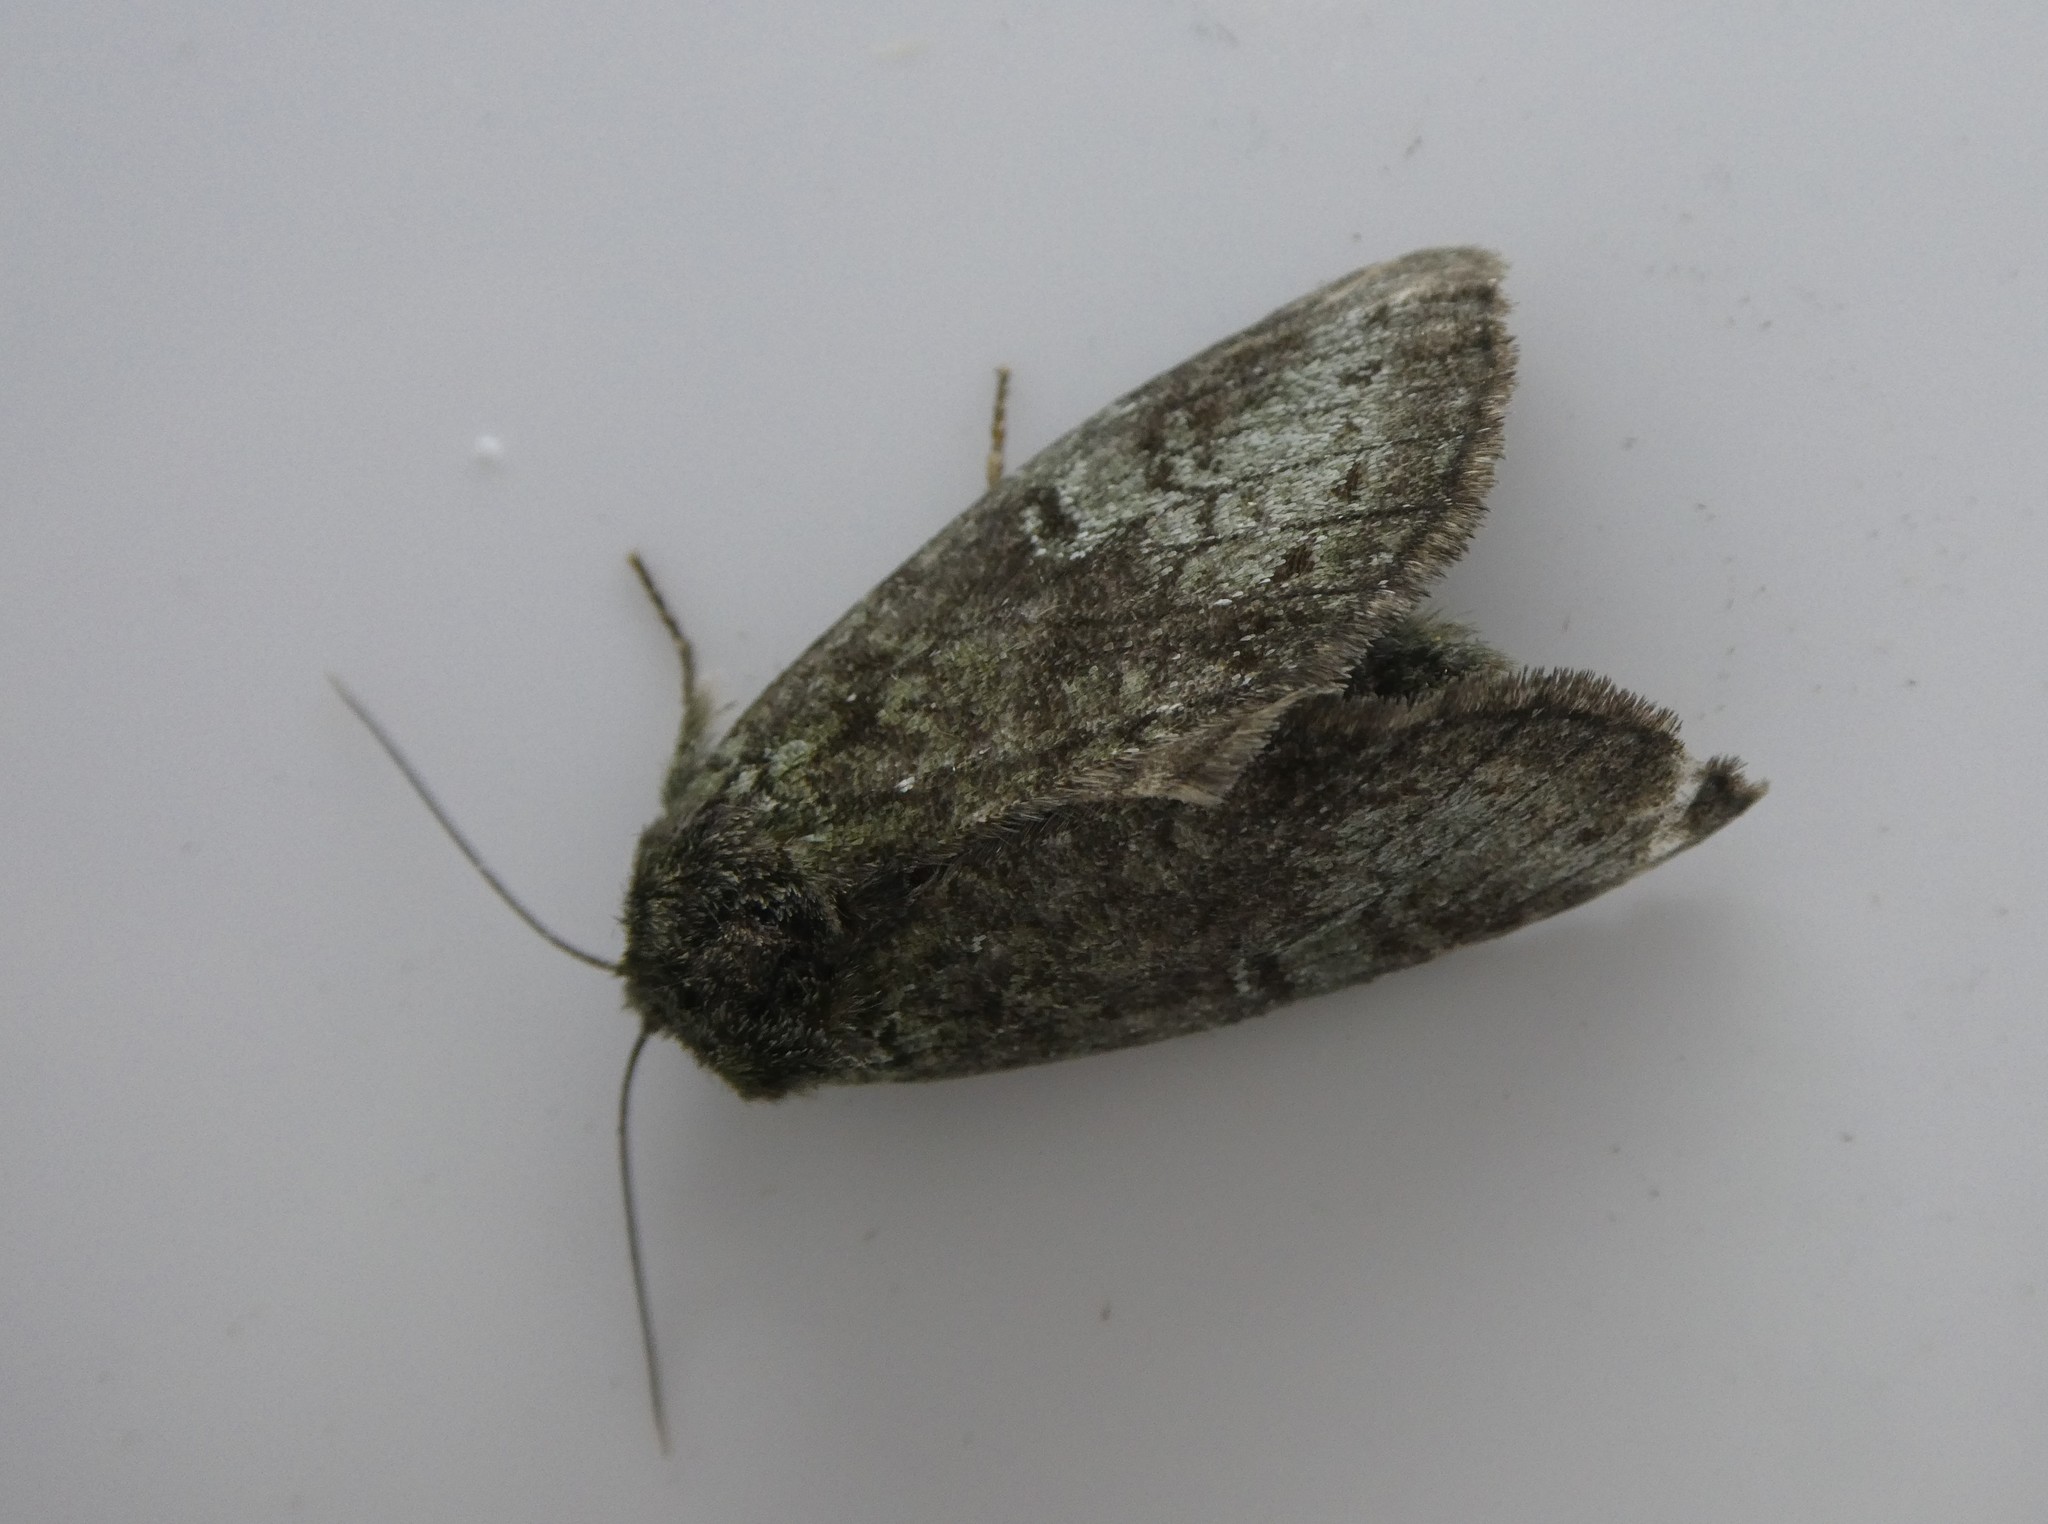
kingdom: Animalia
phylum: Arthropoda
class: Insecta
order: Lepidoptera
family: Notodontidae
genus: Disphragis
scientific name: Disphragis Cecrita guttivitta
